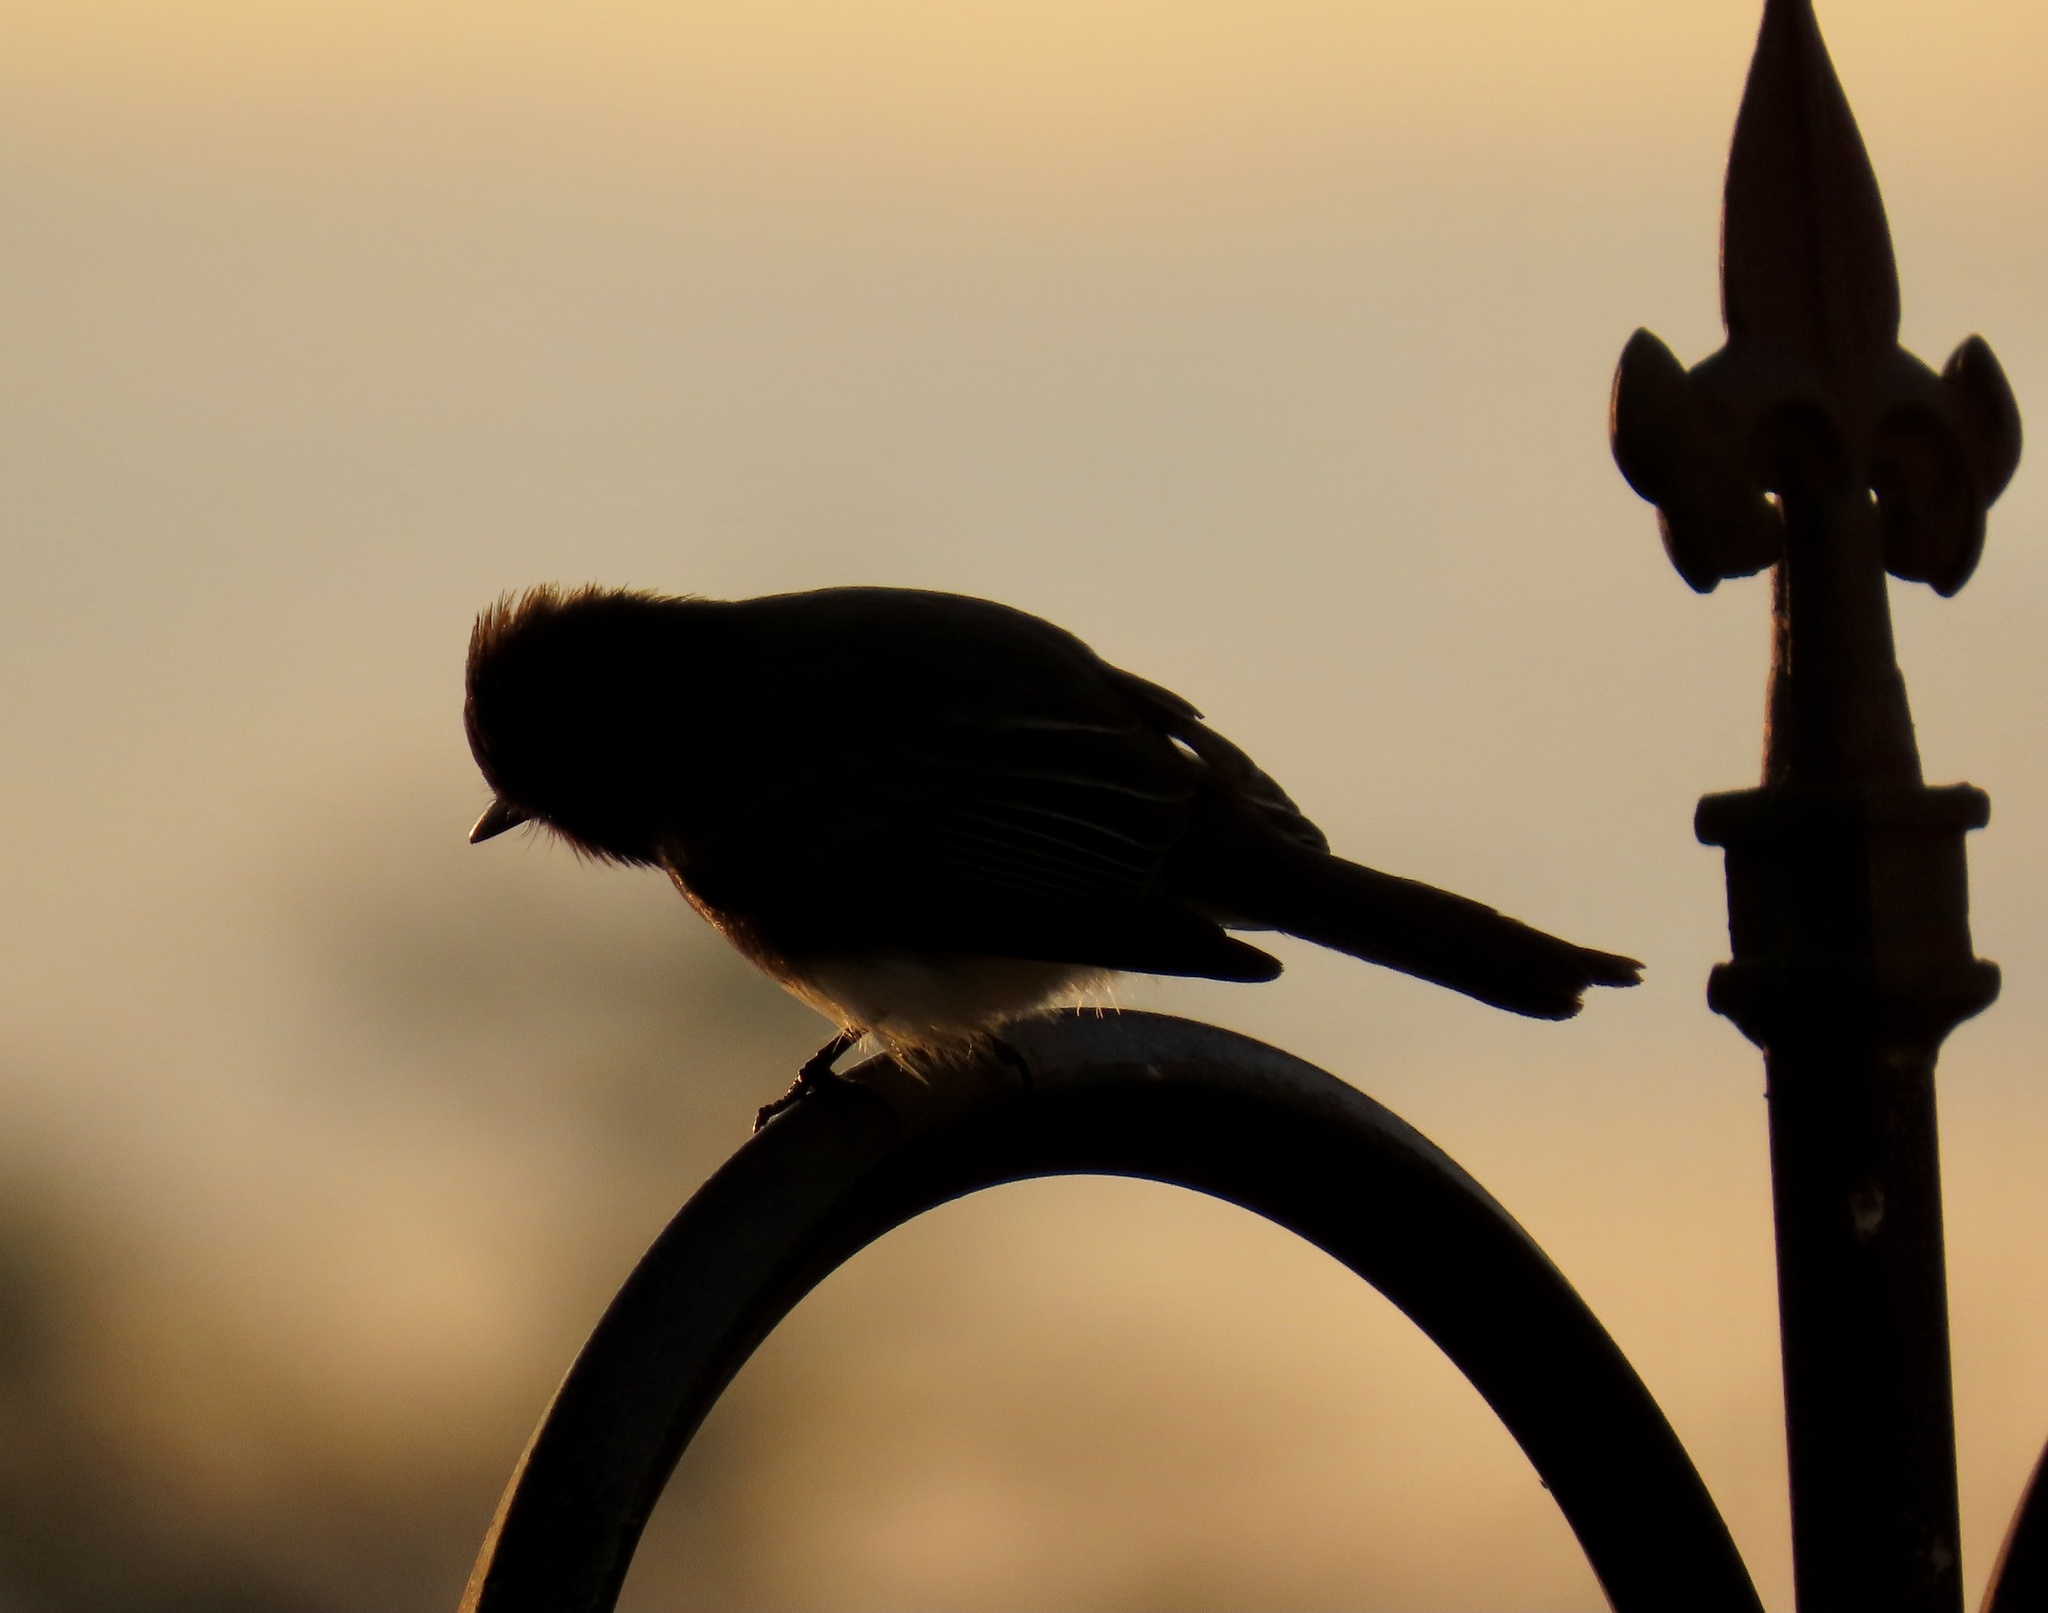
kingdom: Animalia
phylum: Chordata
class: Aves
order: Passeriformes
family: Tyrannidae
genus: Sayornis
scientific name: Sayornis nigricans
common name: Black phoebe
